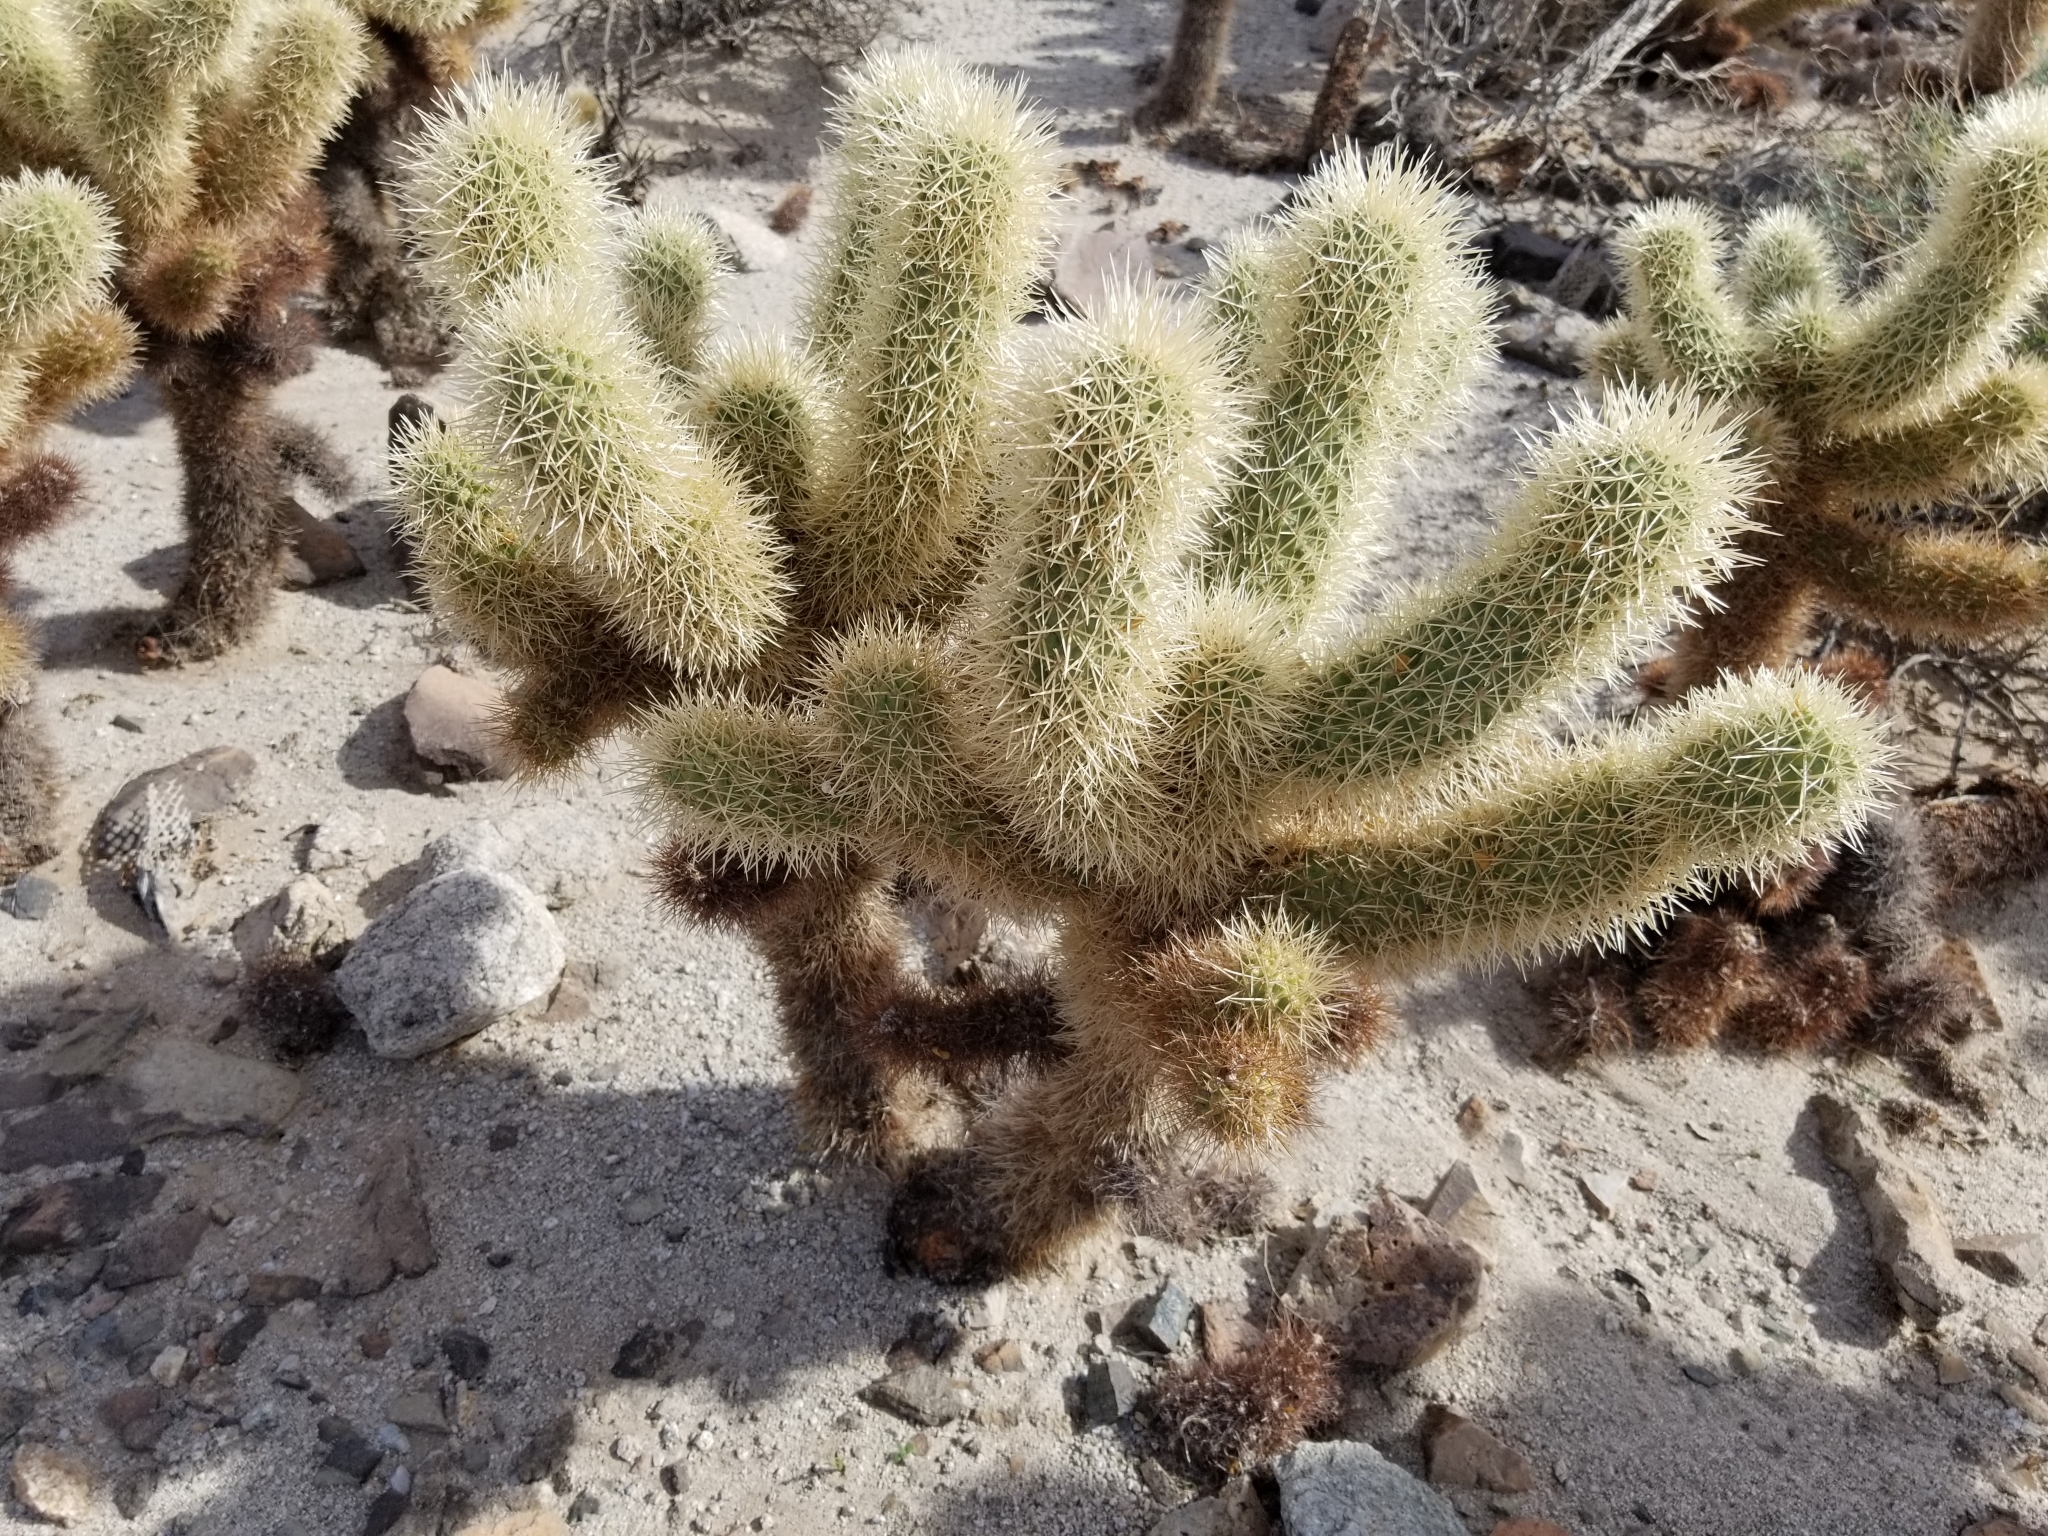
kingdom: Plantae
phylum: Tracheophyta
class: Magnoliopsida
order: Caryophyllales
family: Cactaceae
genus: Cylindropuntia
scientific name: Cylindropuntia fosbergii
